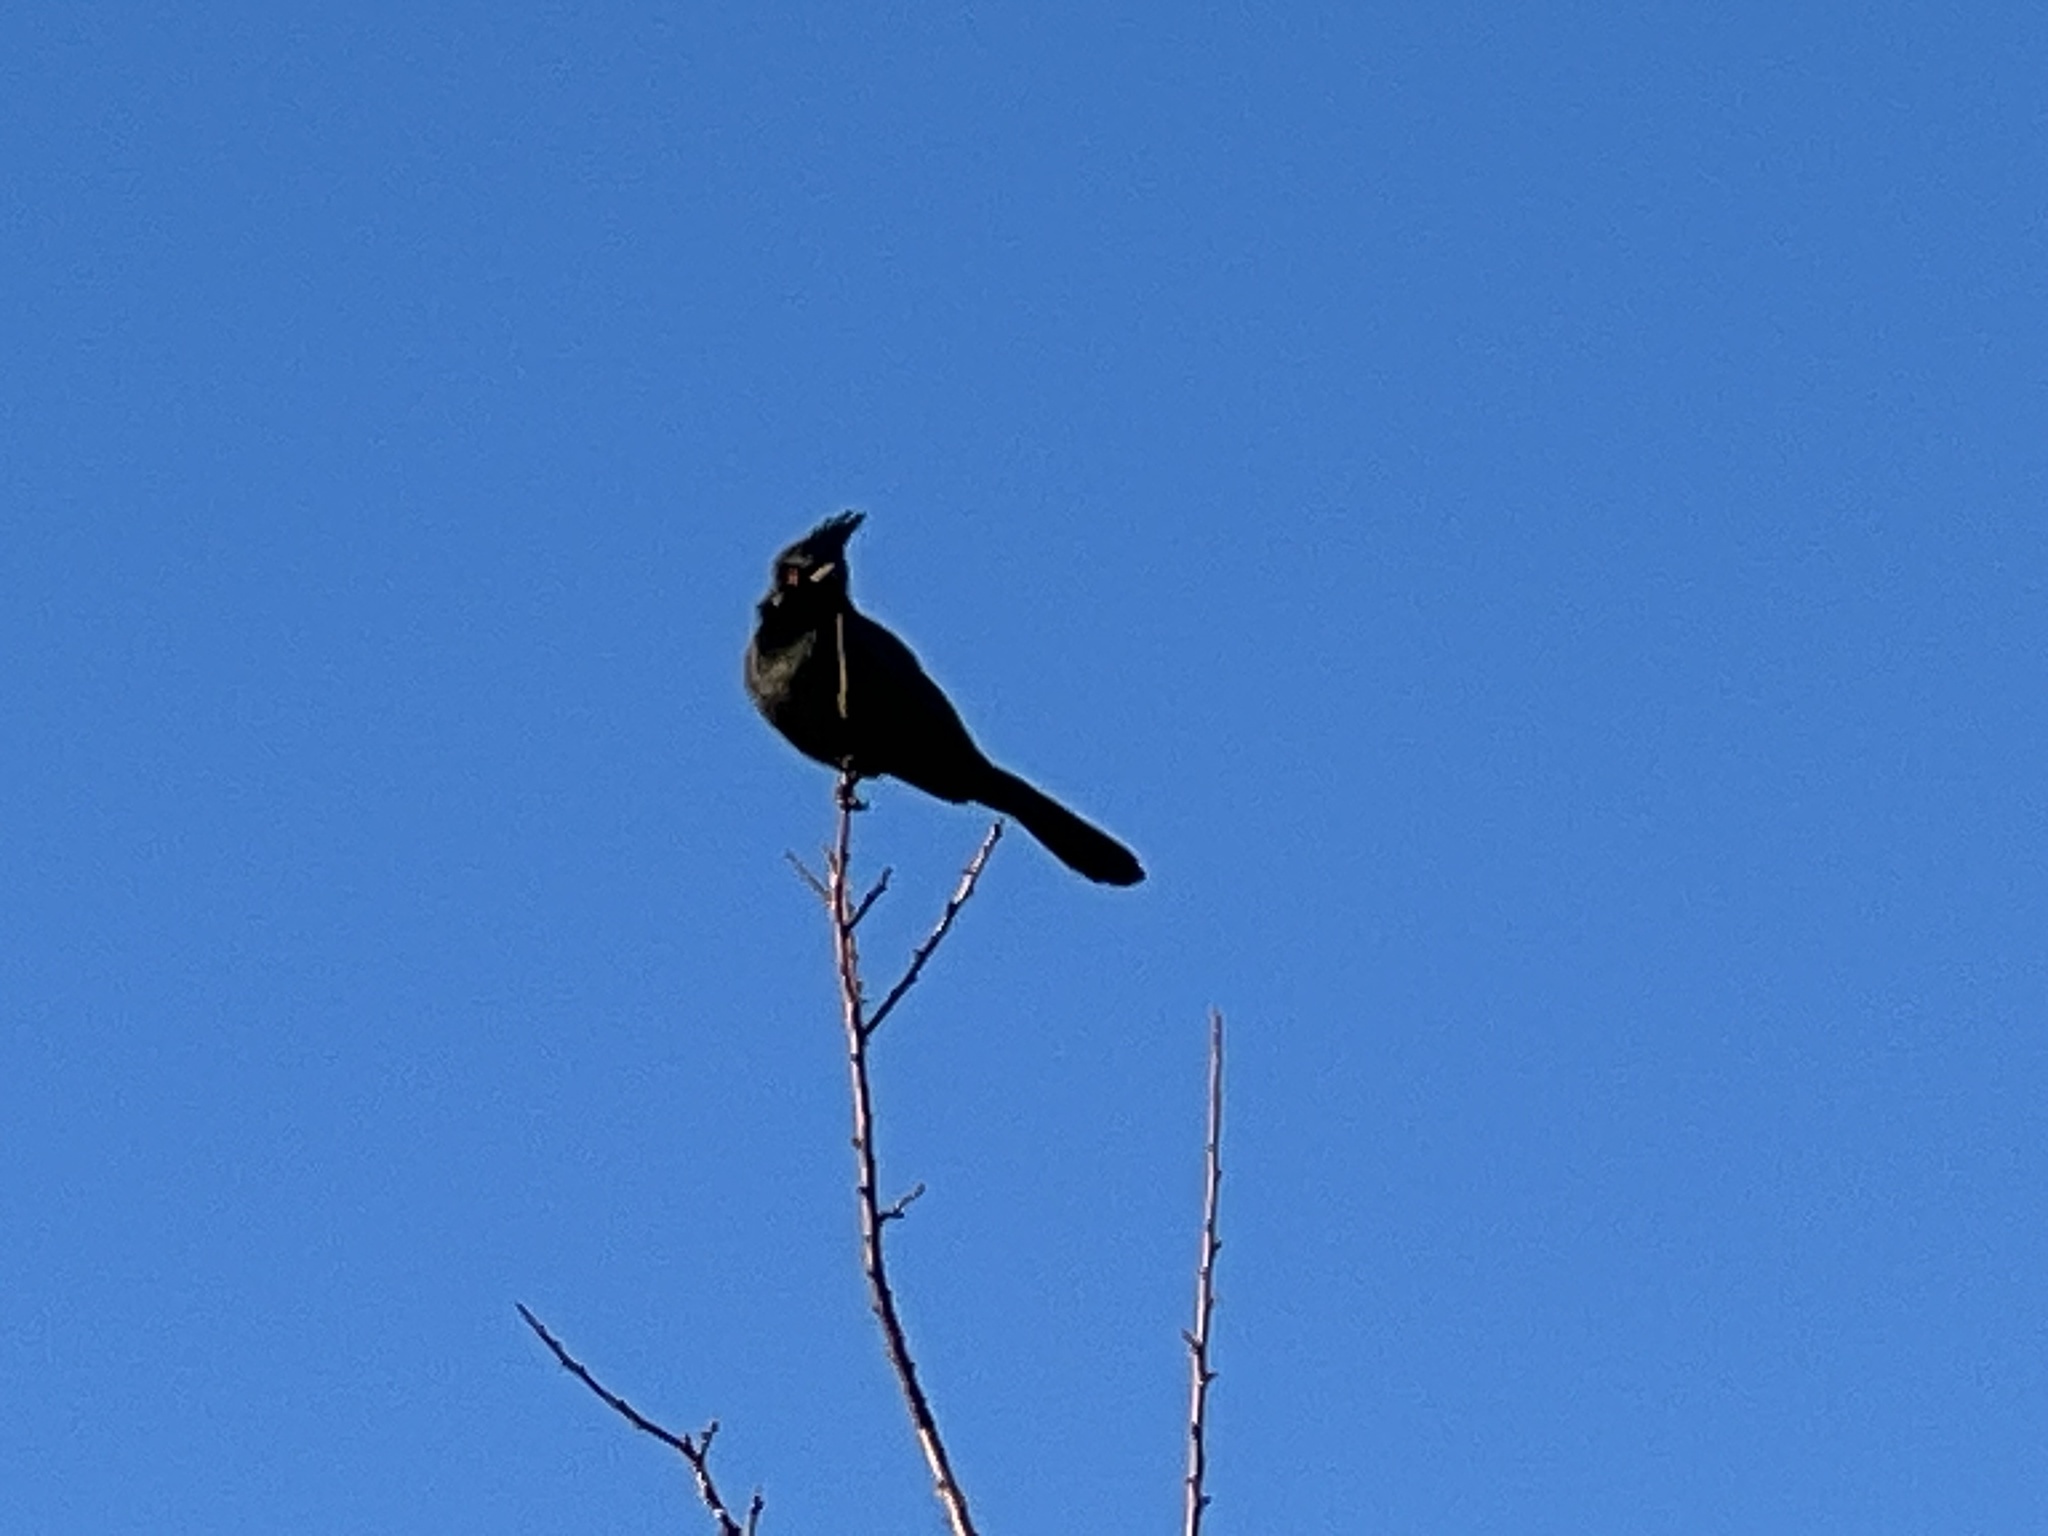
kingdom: Animalia
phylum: Chordata
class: Aves
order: Passeriformes
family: Ptilogonatidae
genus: Phainopepla
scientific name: Phainopepla nitens
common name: Phainopepla
